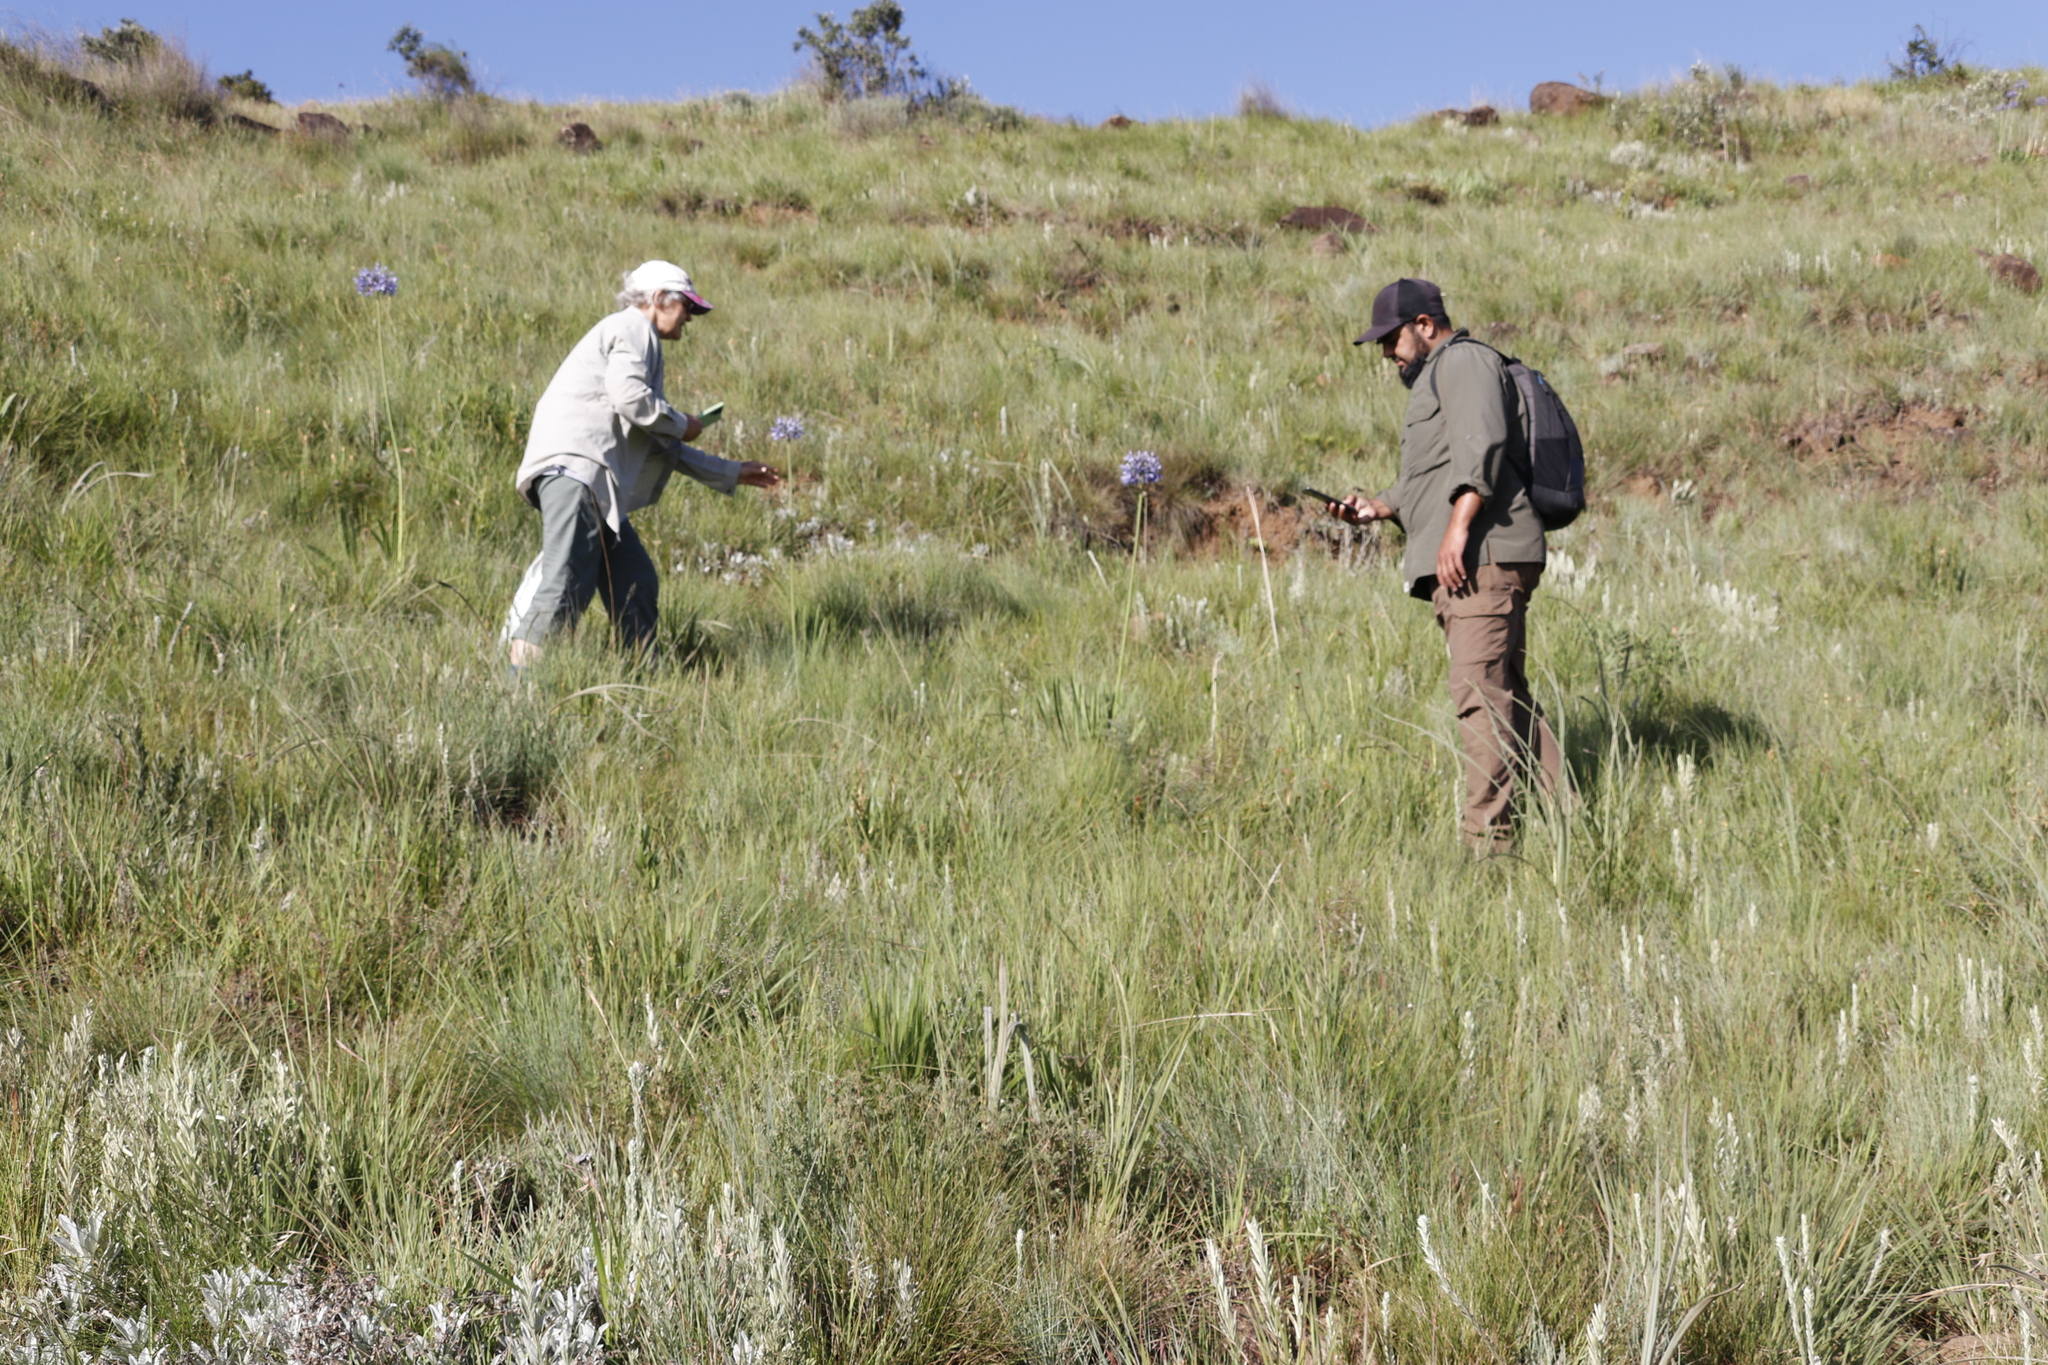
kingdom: Plantae
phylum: Tracheophyta
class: Liliopsida
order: Asparagales
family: Amaryllidaceae
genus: Agapanthus
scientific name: Agapanthus campanulatus
